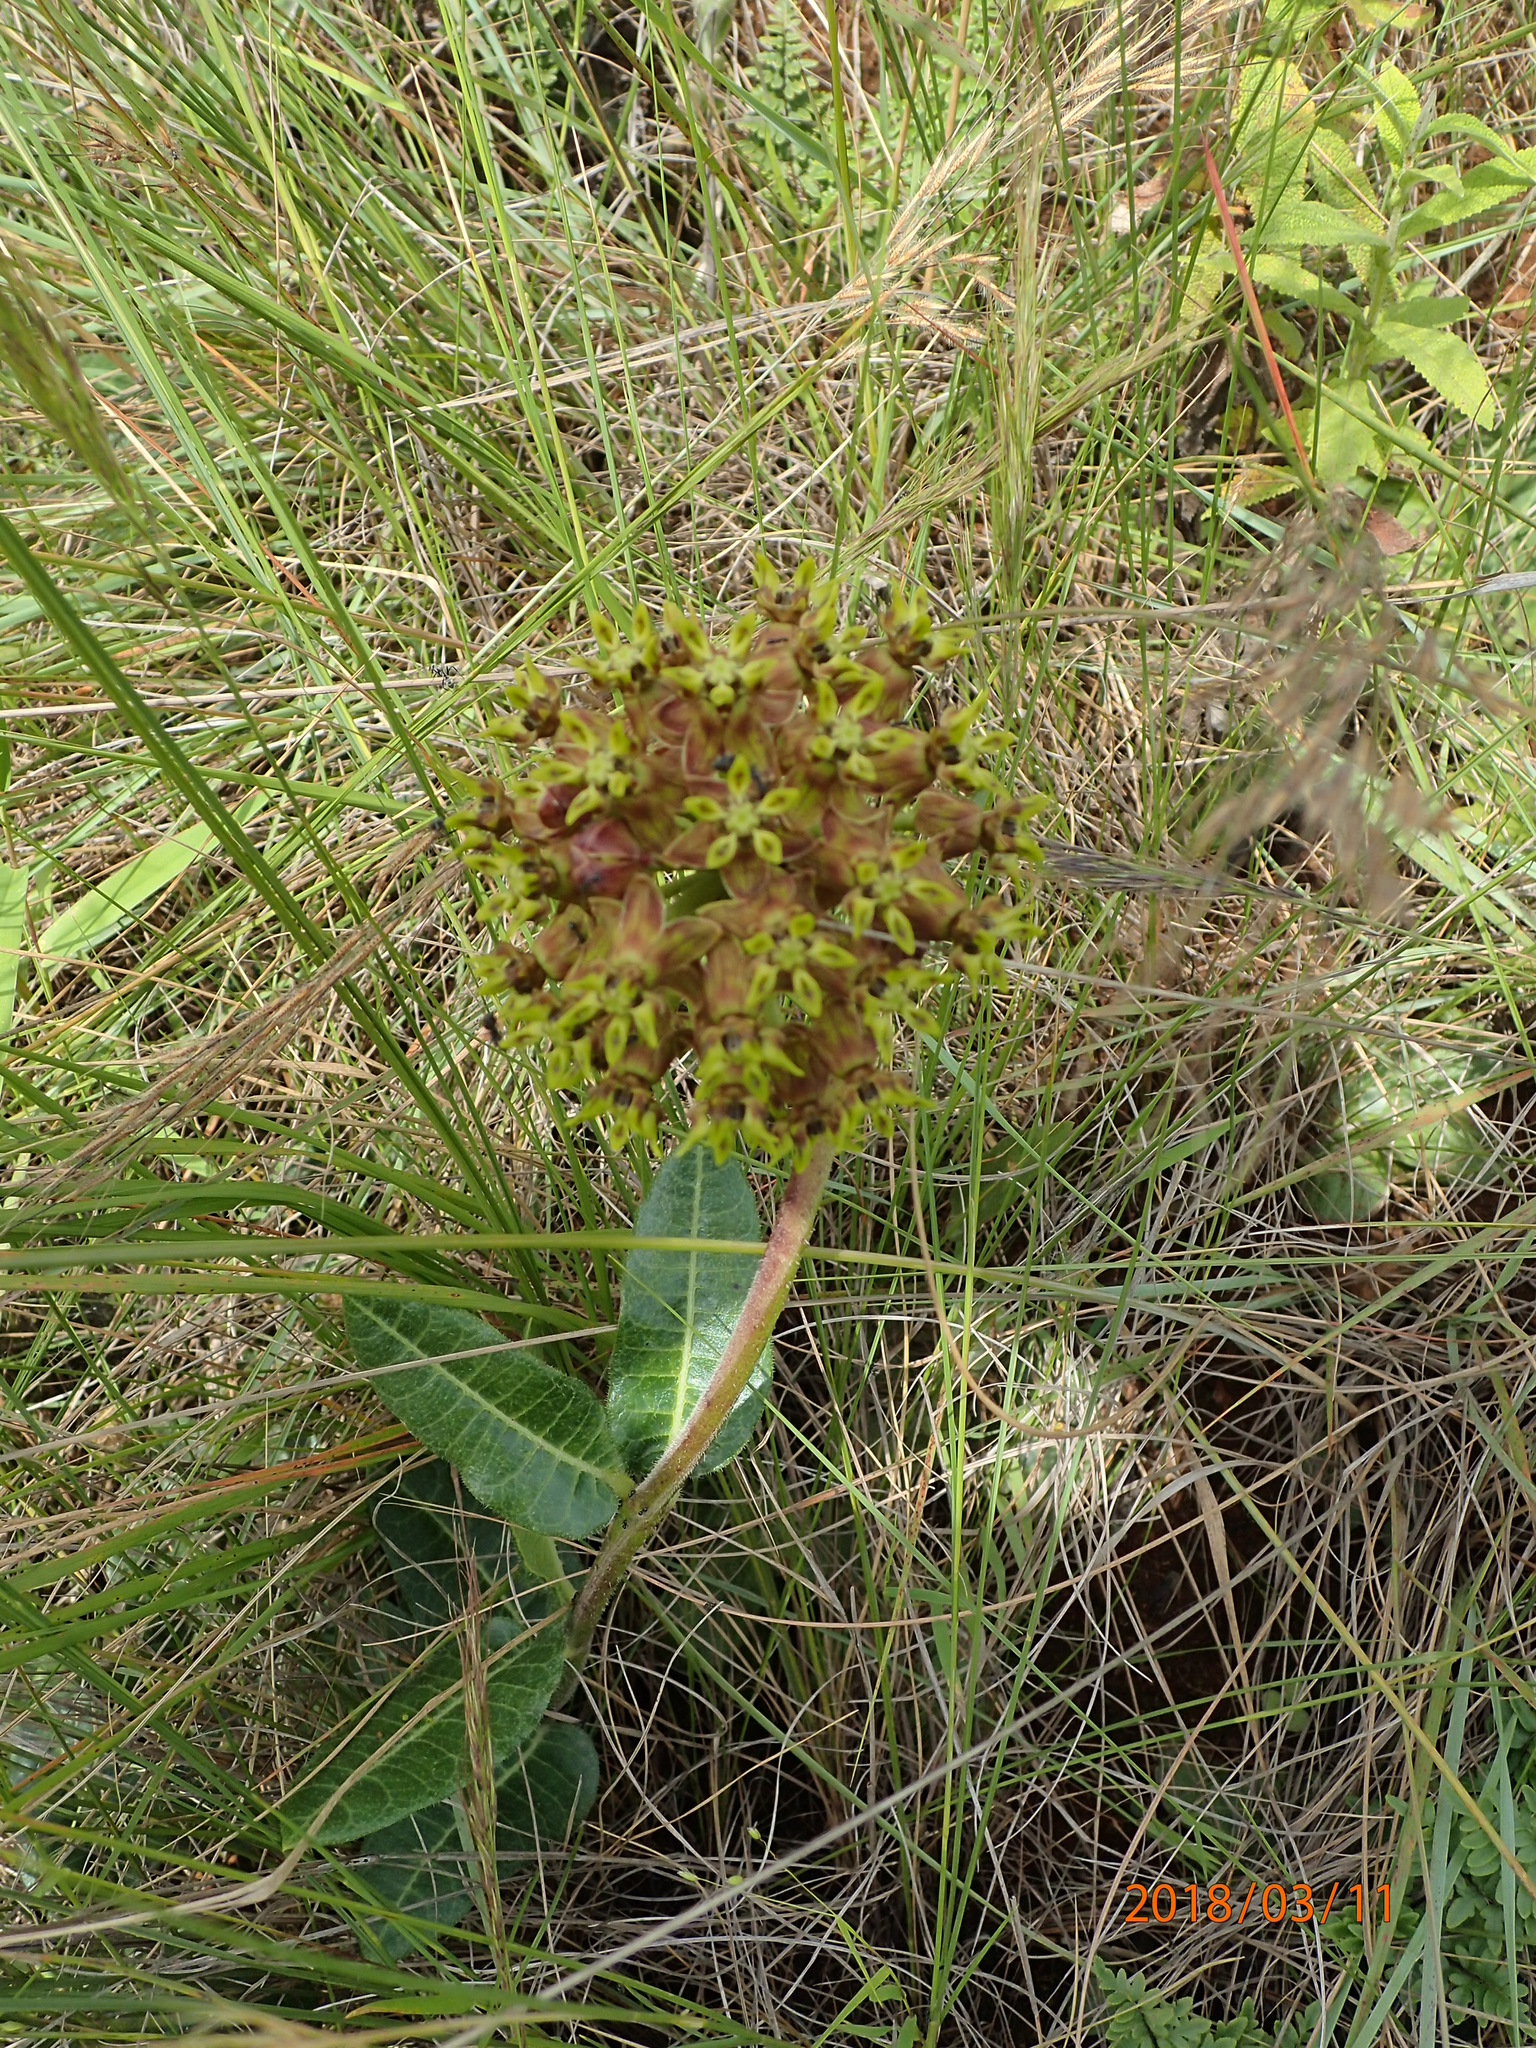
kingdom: Plantae
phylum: Tracheophyta
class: Magnoliopsida
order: Gentianales
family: Apocynaceae
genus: Asclepias
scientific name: Asclepias macropus
